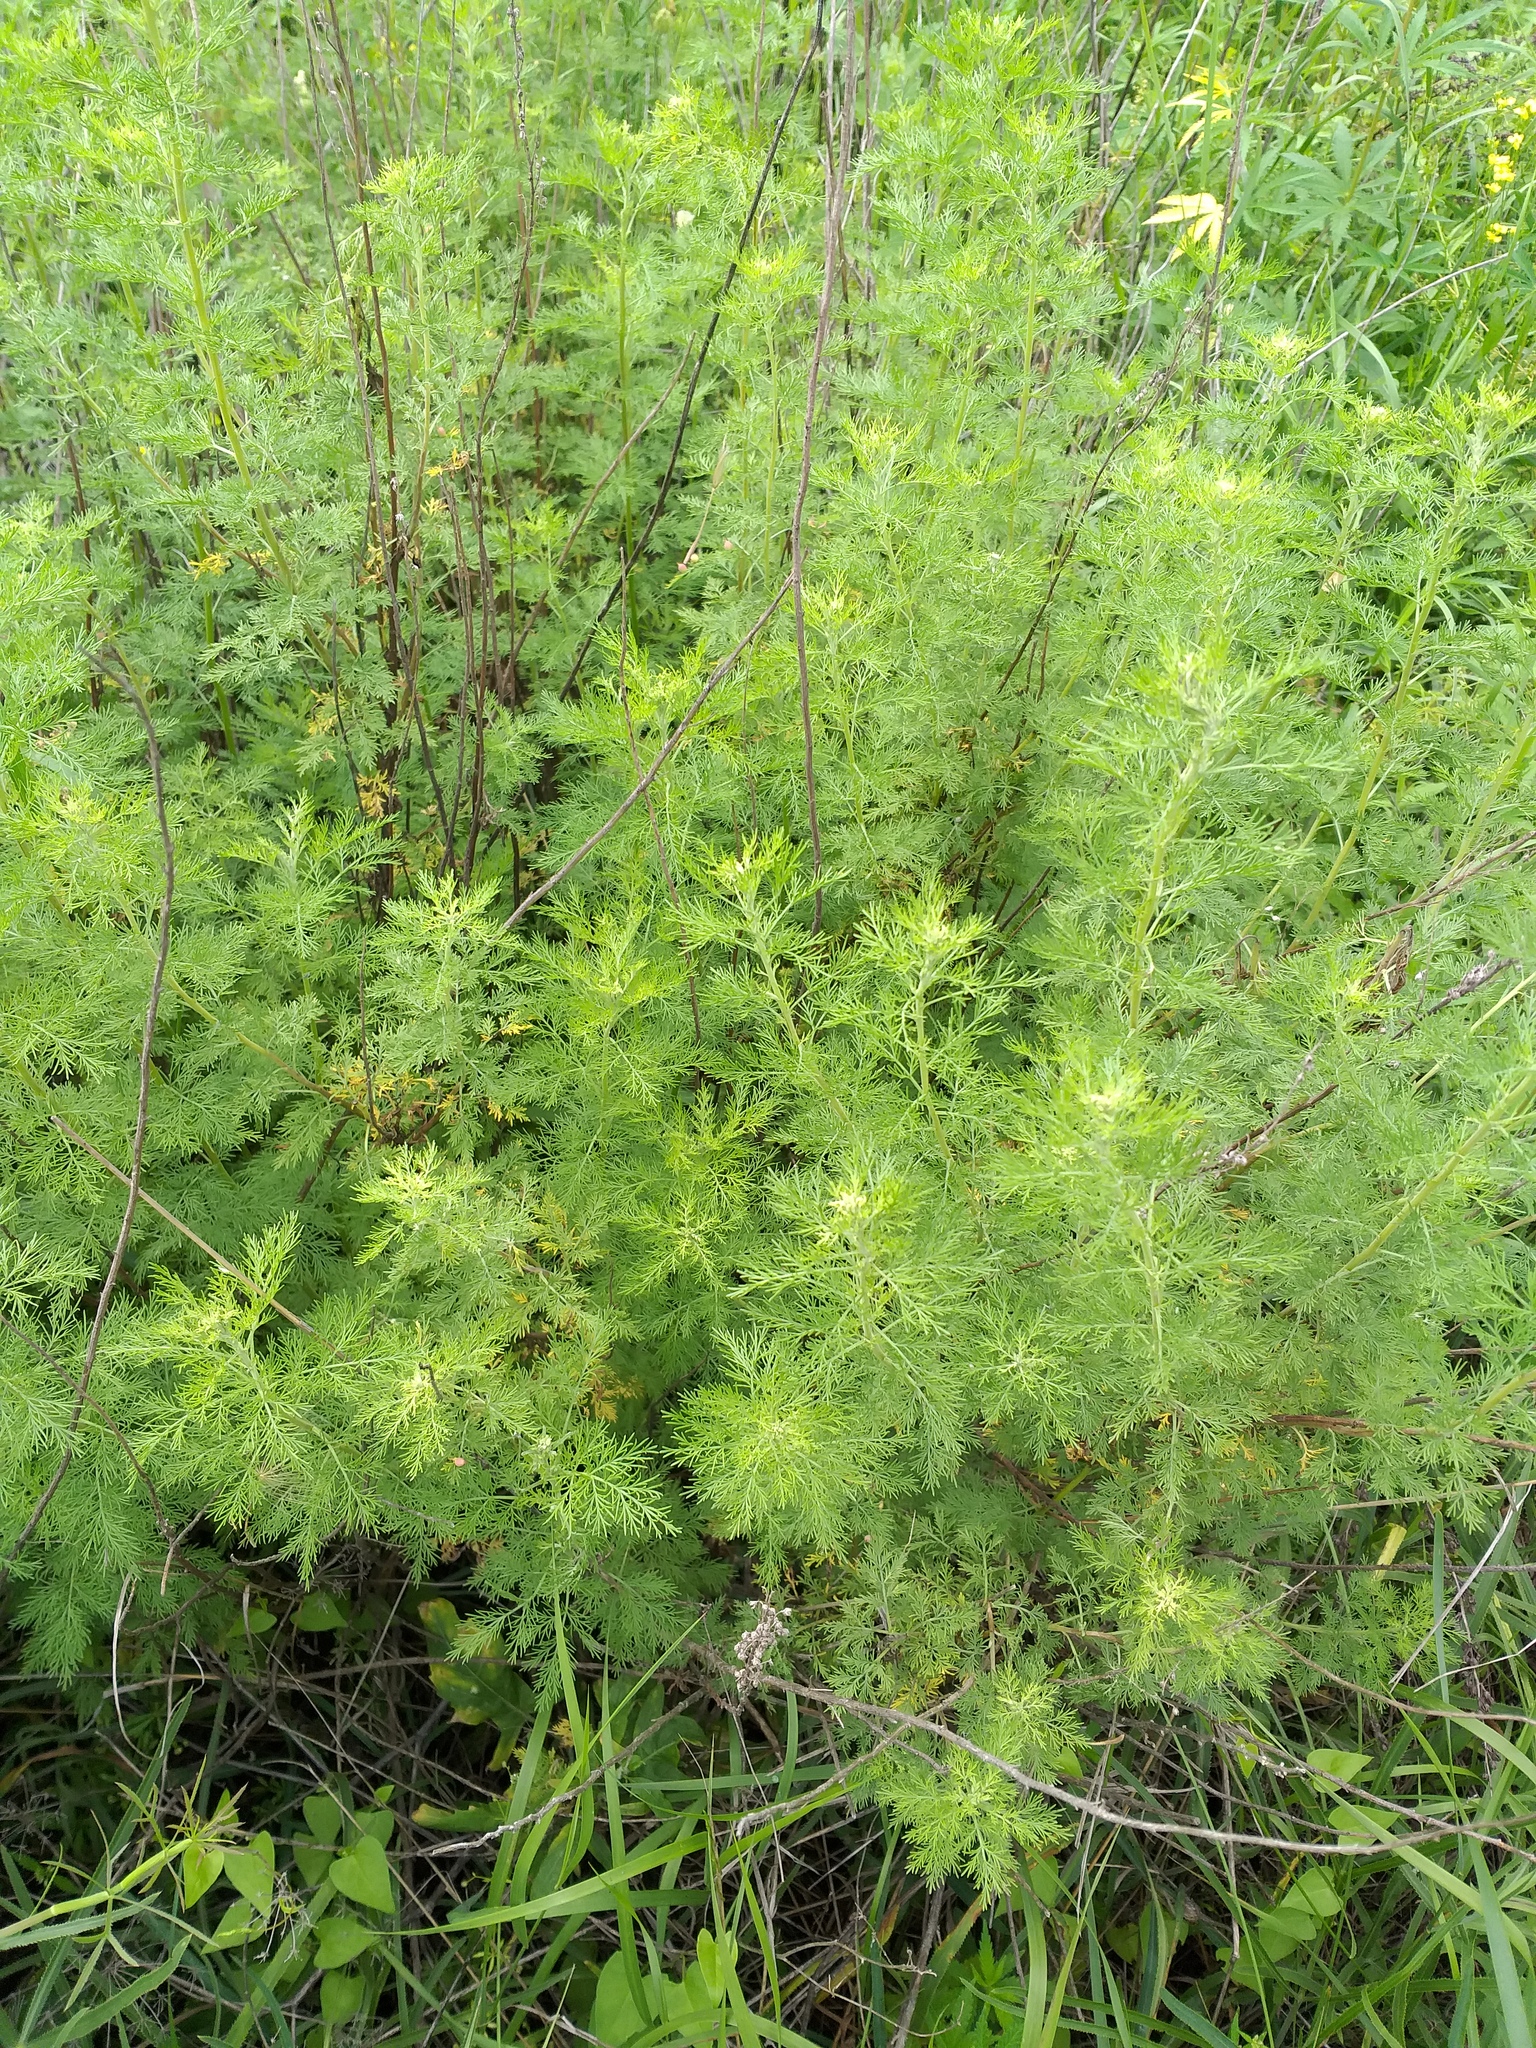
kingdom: Plantae
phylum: Tracheophyta
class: Magnoliopsida
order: Asterales
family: Asteraceae
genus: Artemisia
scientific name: Artemisia abrotanum
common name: Southernwood
